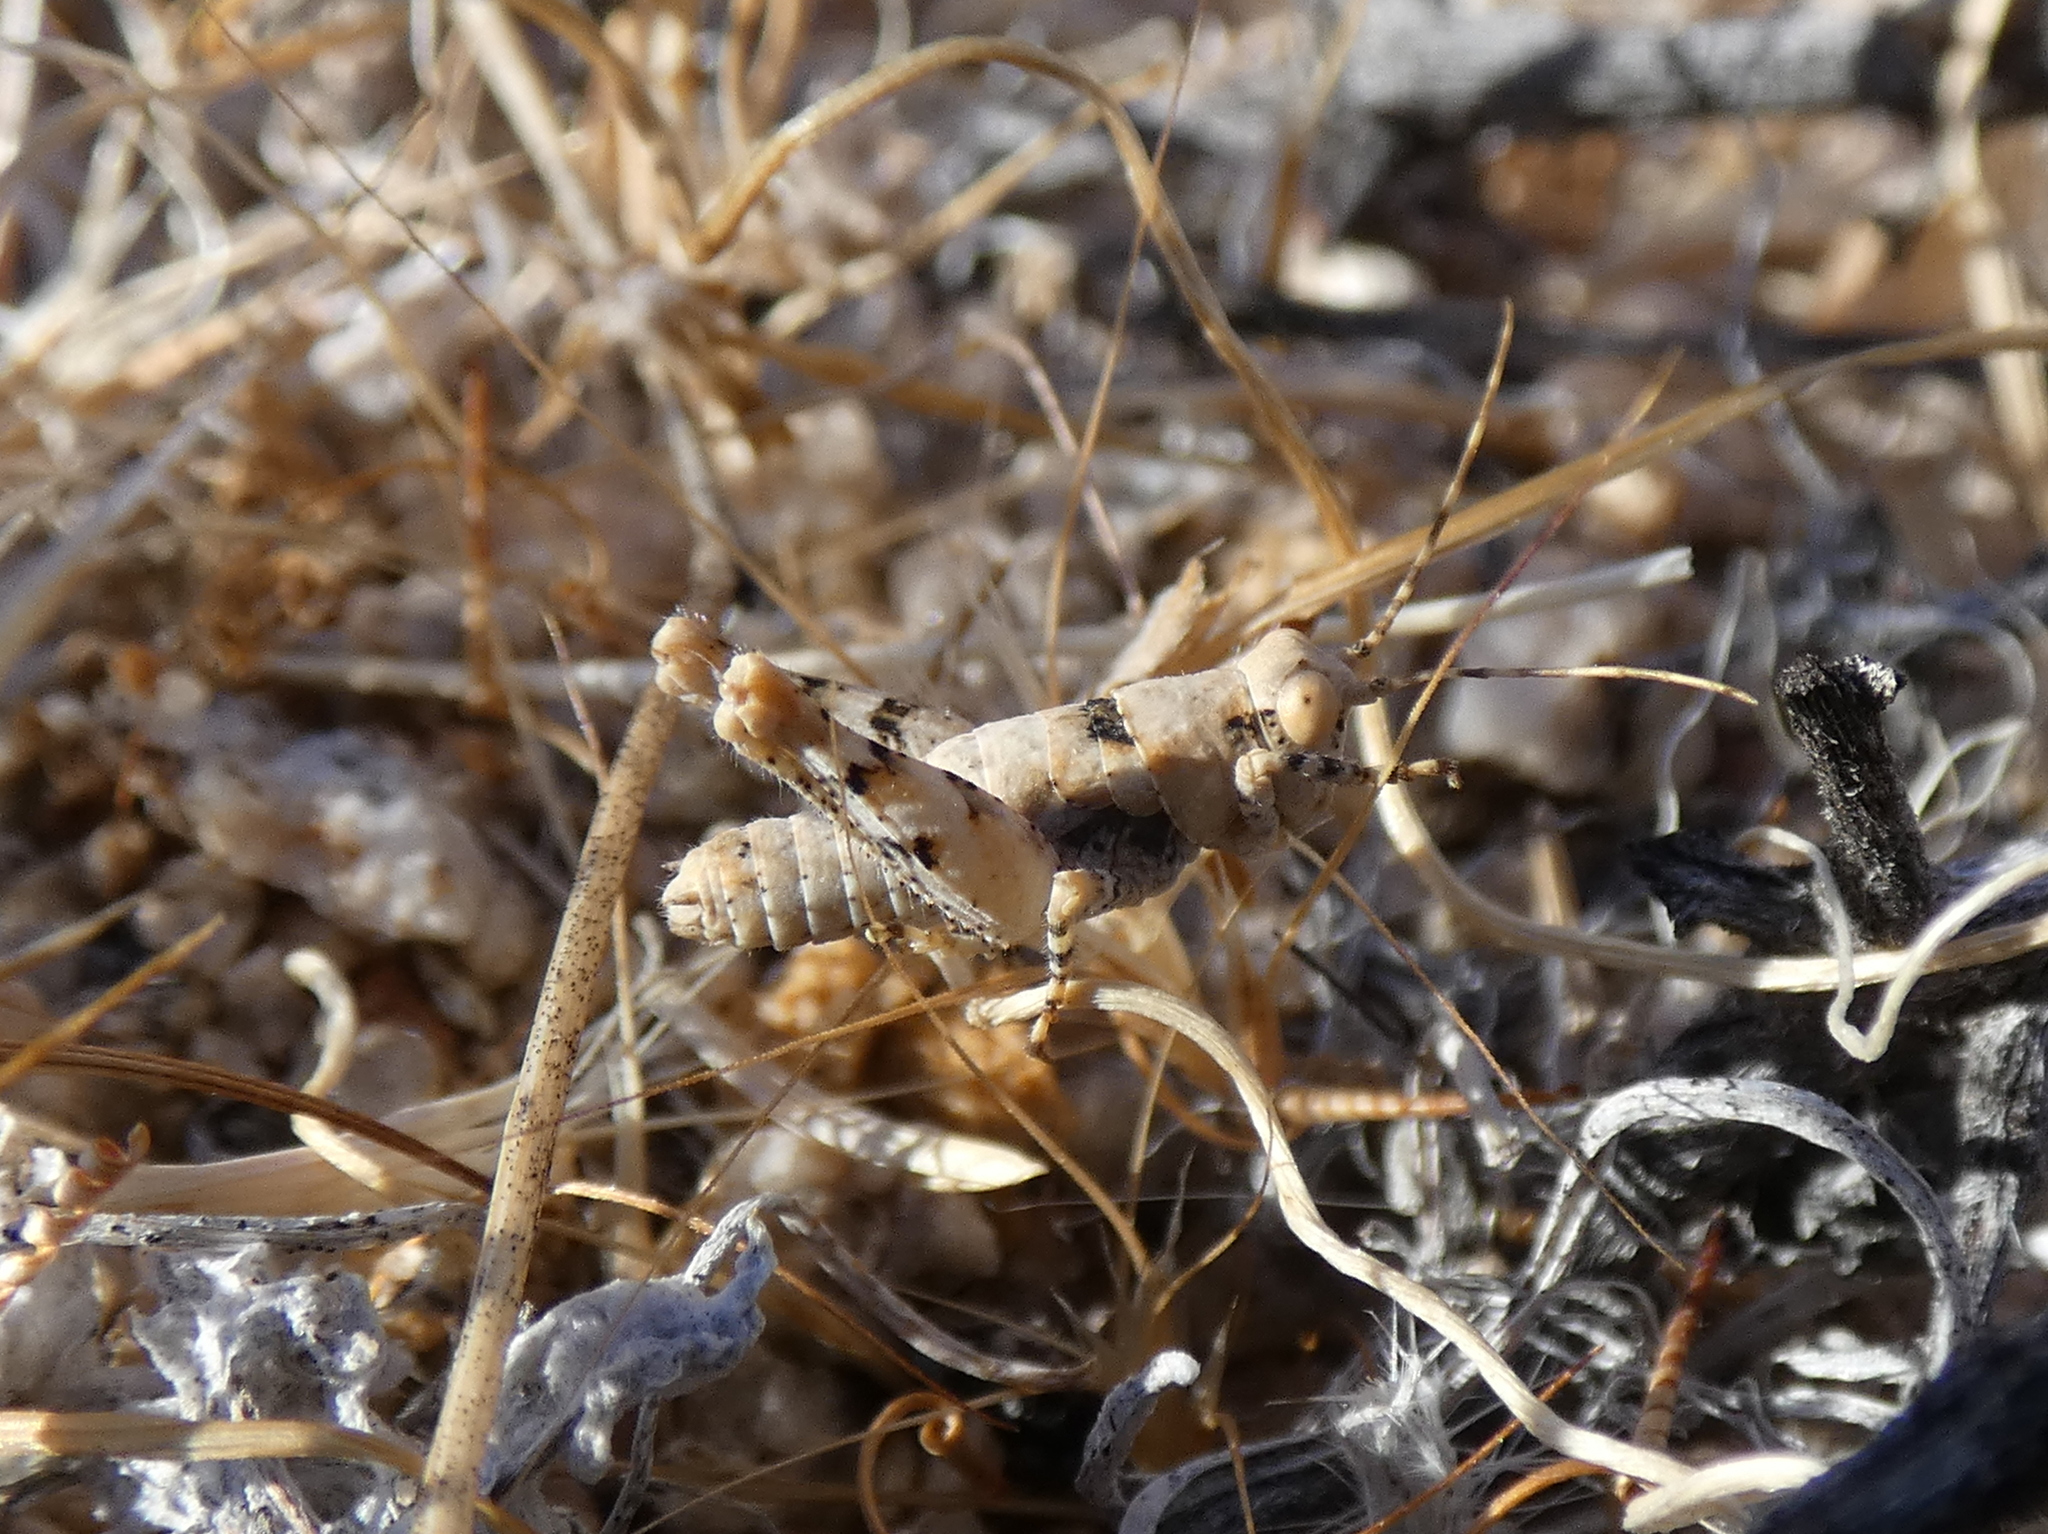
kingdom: Animalia
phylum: Arthropoda
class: Insecta
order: Orthoptera
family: Tanaoceridae
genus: Tanaocerus
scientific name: Tanaocerus koebelei
